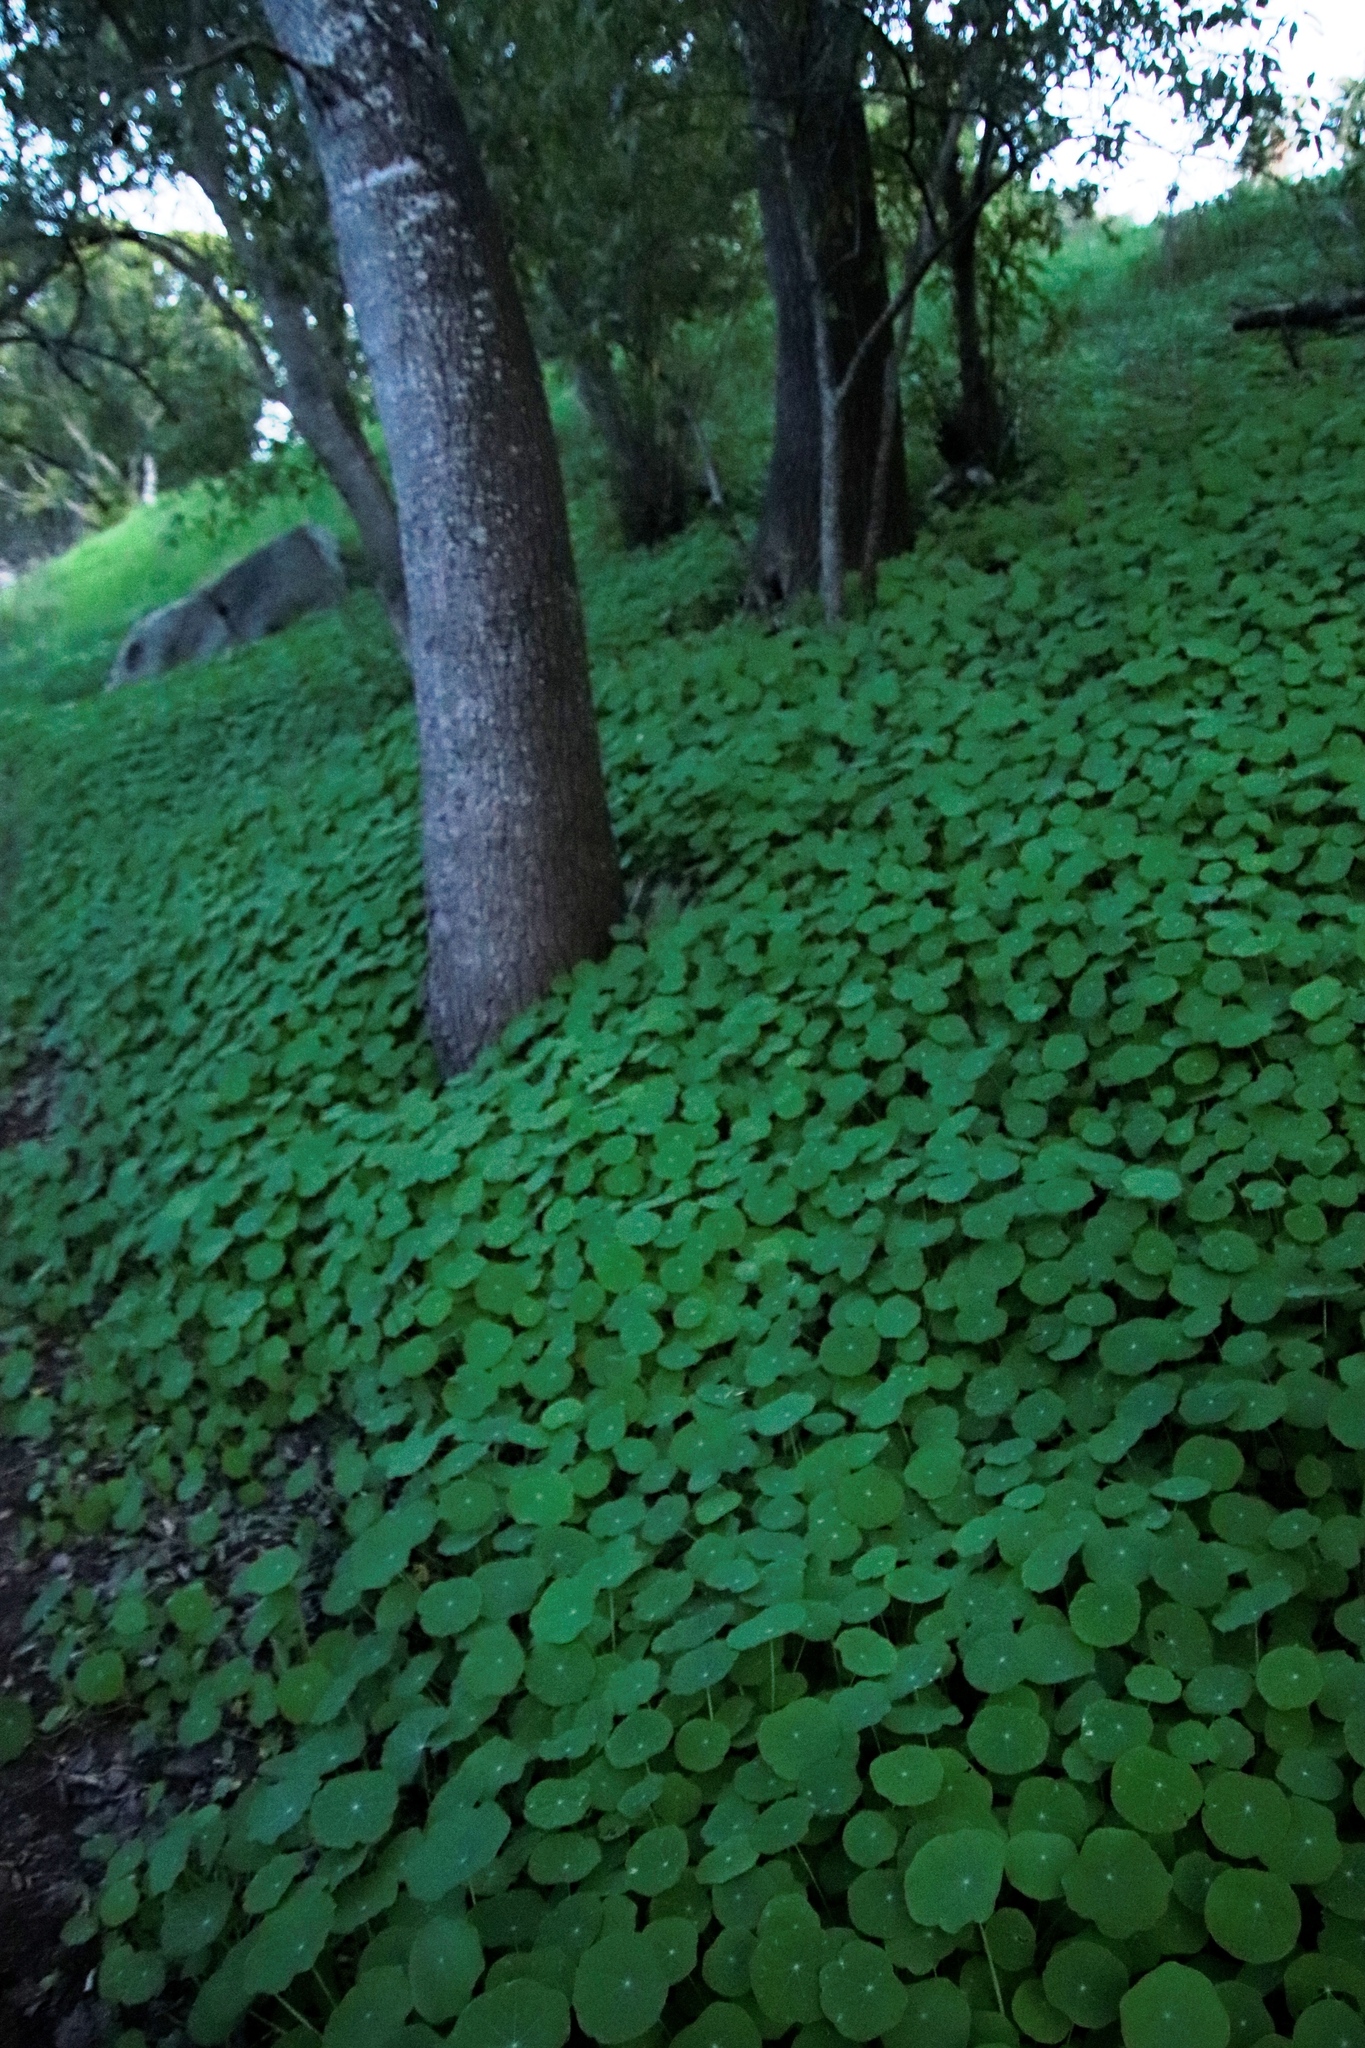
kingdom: Plantae
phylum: Tracheophyta
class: Magnoliopsida
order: Brassicales
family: Tropaeolaceae
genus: Tropaeolum
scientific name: Tropaeolum majus
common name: Nasturtium
